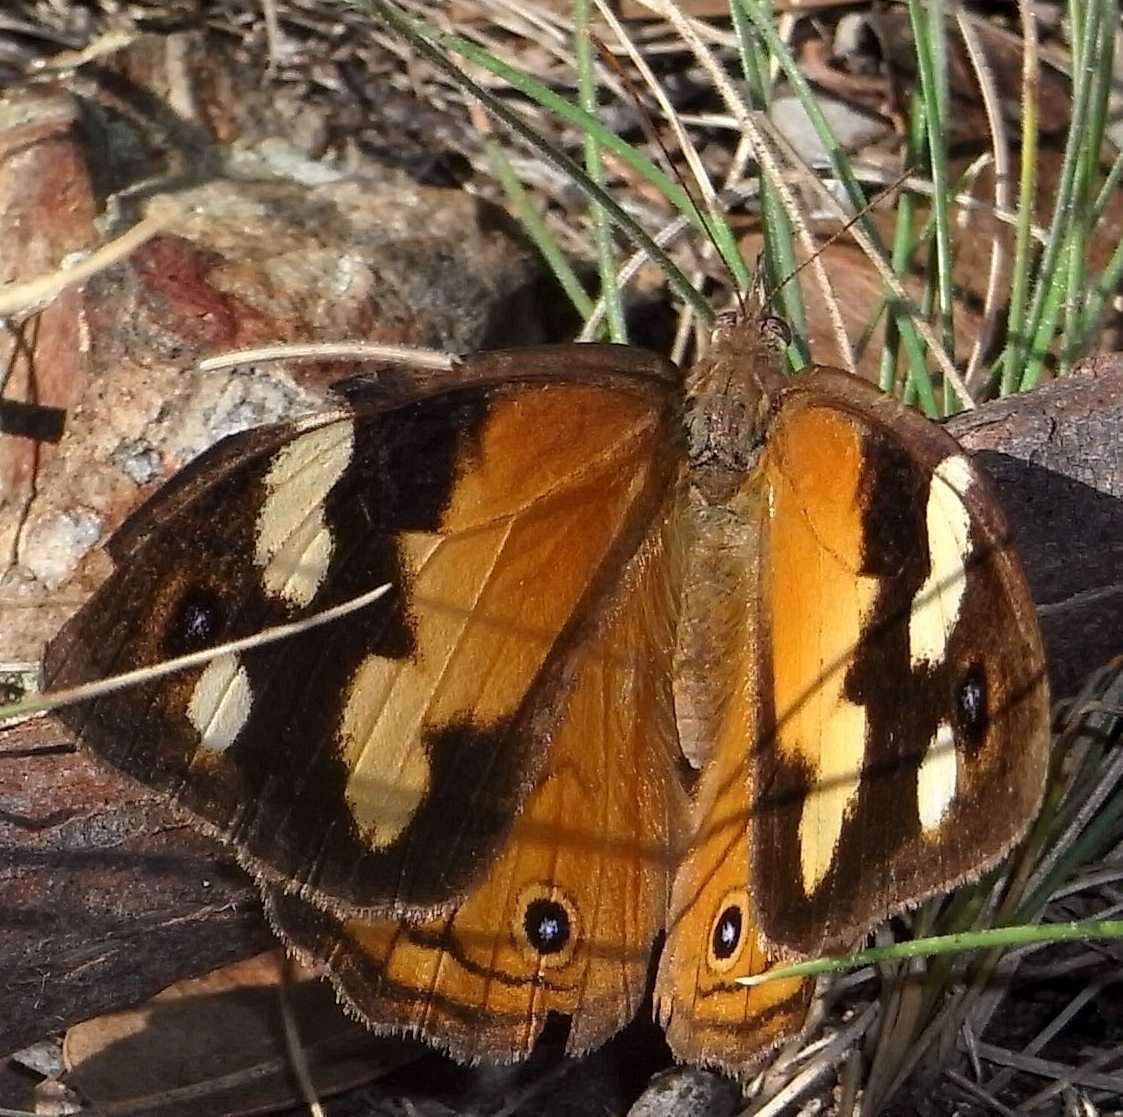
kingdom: Animalia
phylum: Arthropoda
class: Insecta
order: Lepidoptera
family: Nymphalidae
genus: Heteronympha
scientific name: Heteronympha merope
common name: Common brown
